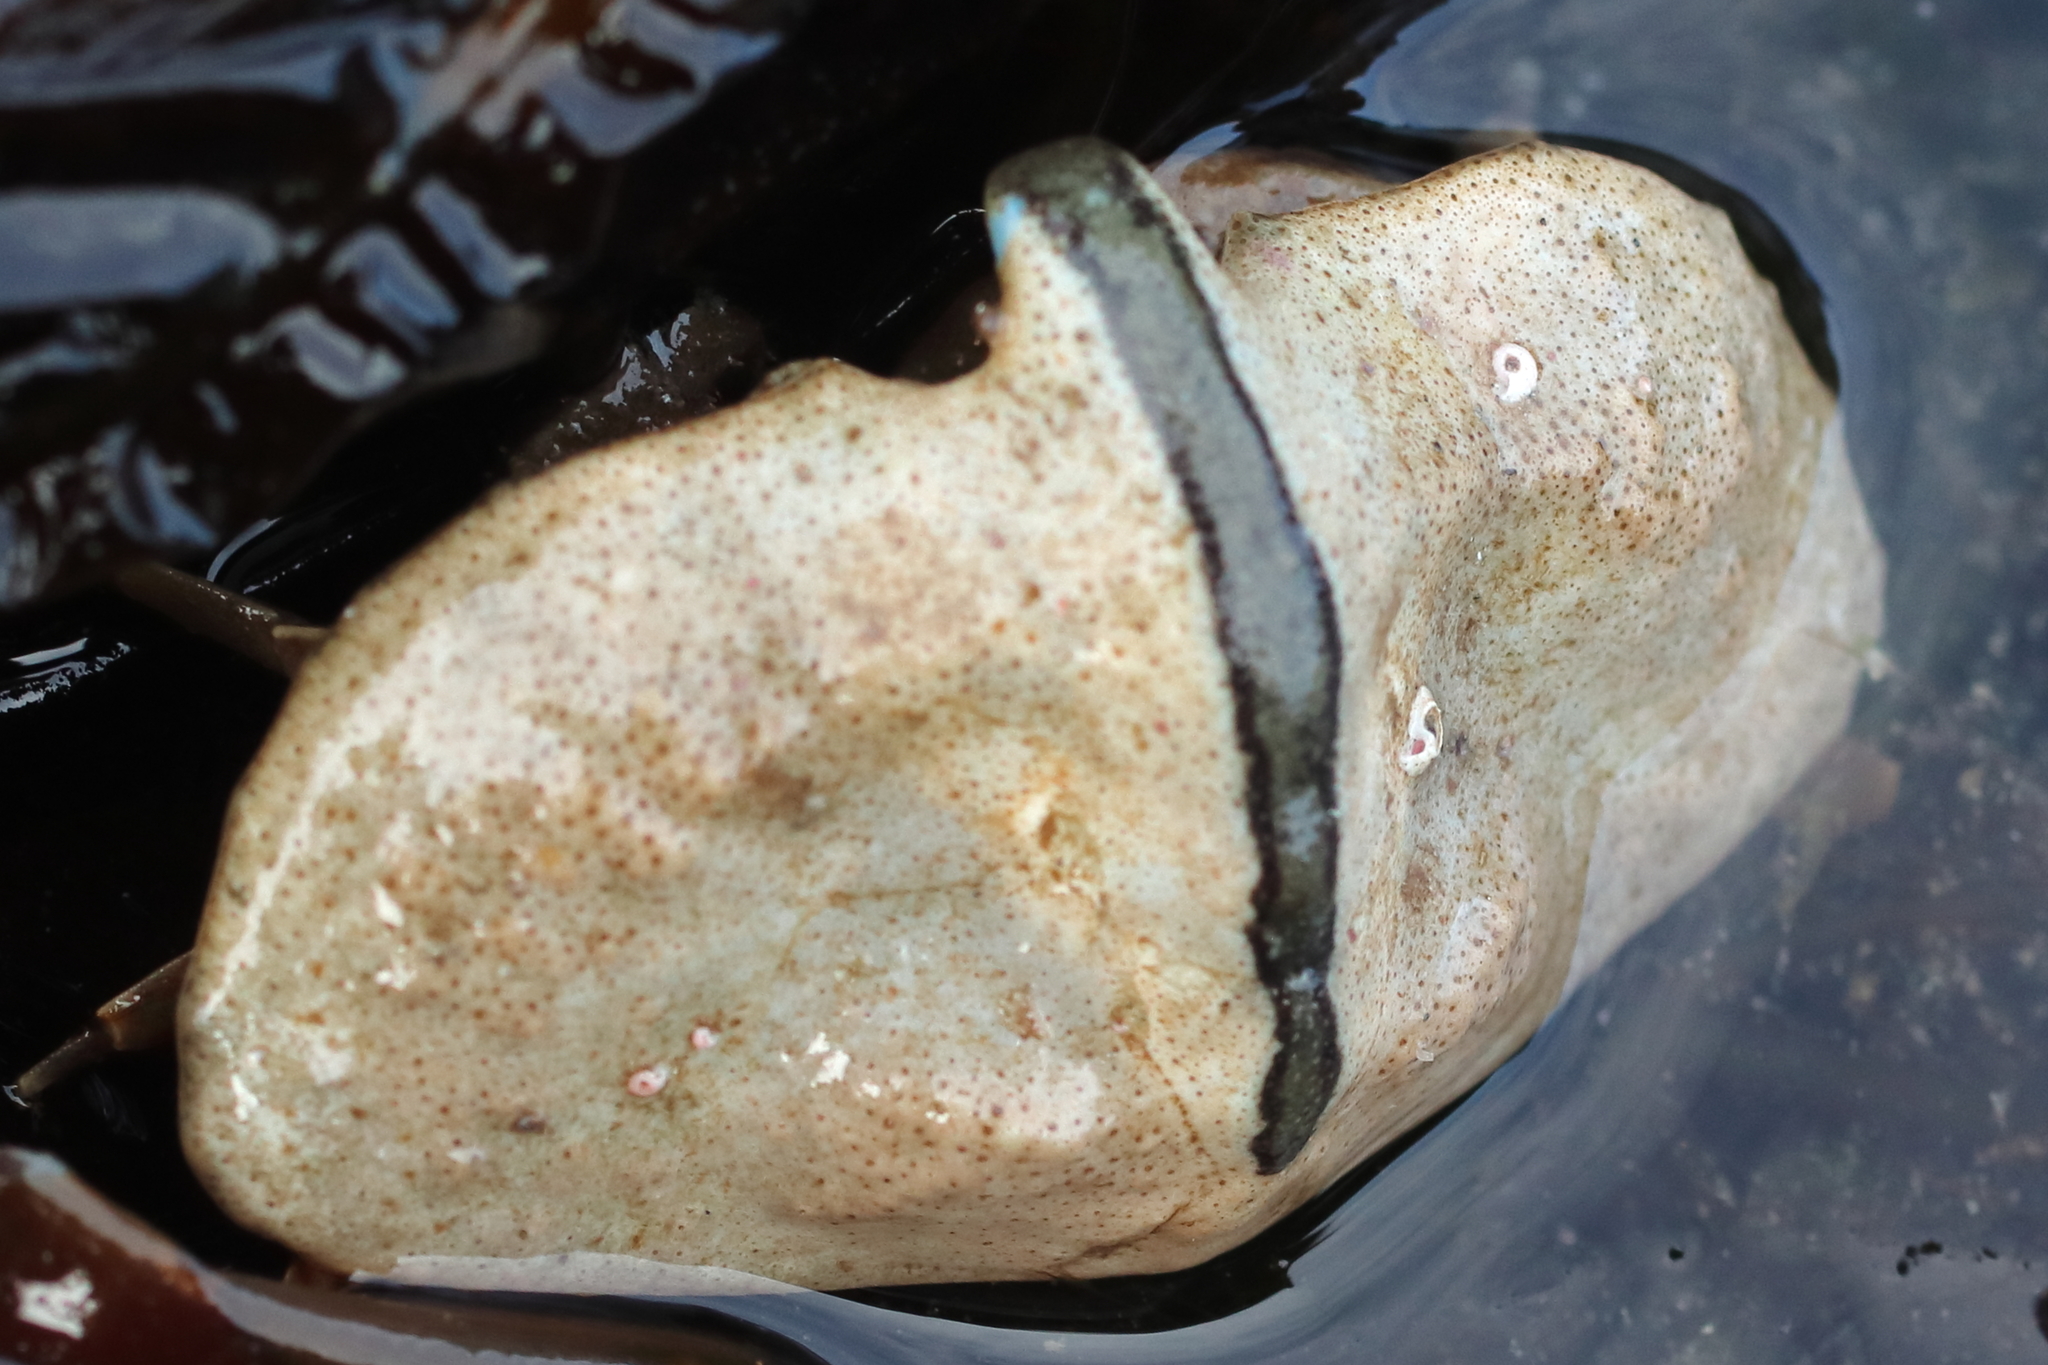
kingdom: Animalia
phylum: Arthropoda
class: Malacostraca
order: Decapoda
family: Lithodidae
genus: Cryptolithodes
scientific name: Cryptolithodes typicus
